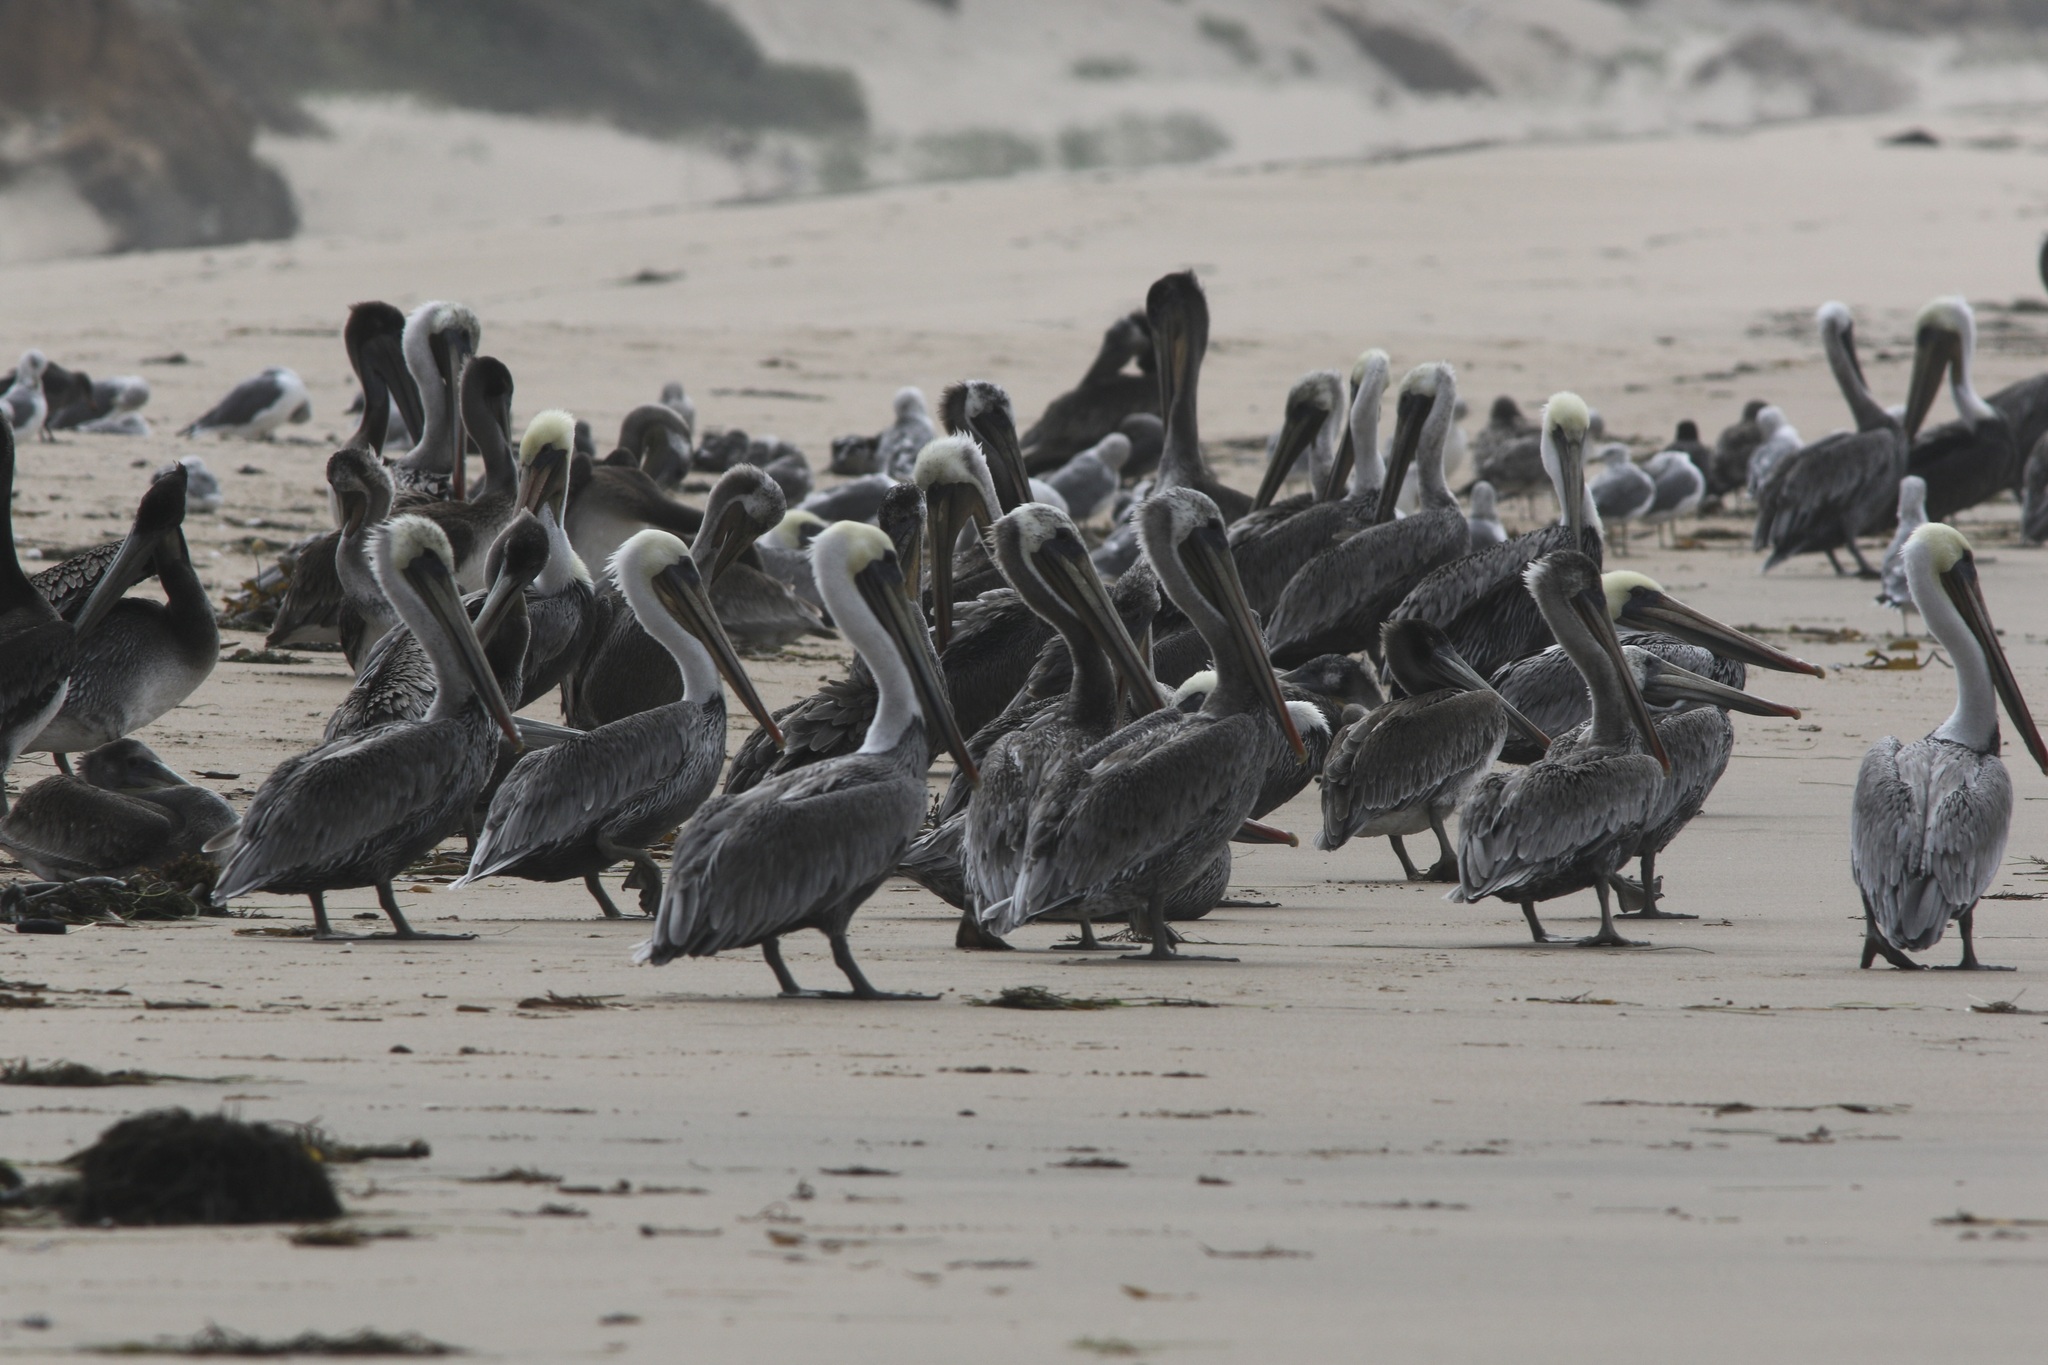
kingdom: Animalia
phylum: Chordata
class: Aves
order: Pelecaniformes
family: Pelecanidae
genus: Pelecanus
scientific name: Pelecanus occidentalis
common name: Brown pelican
